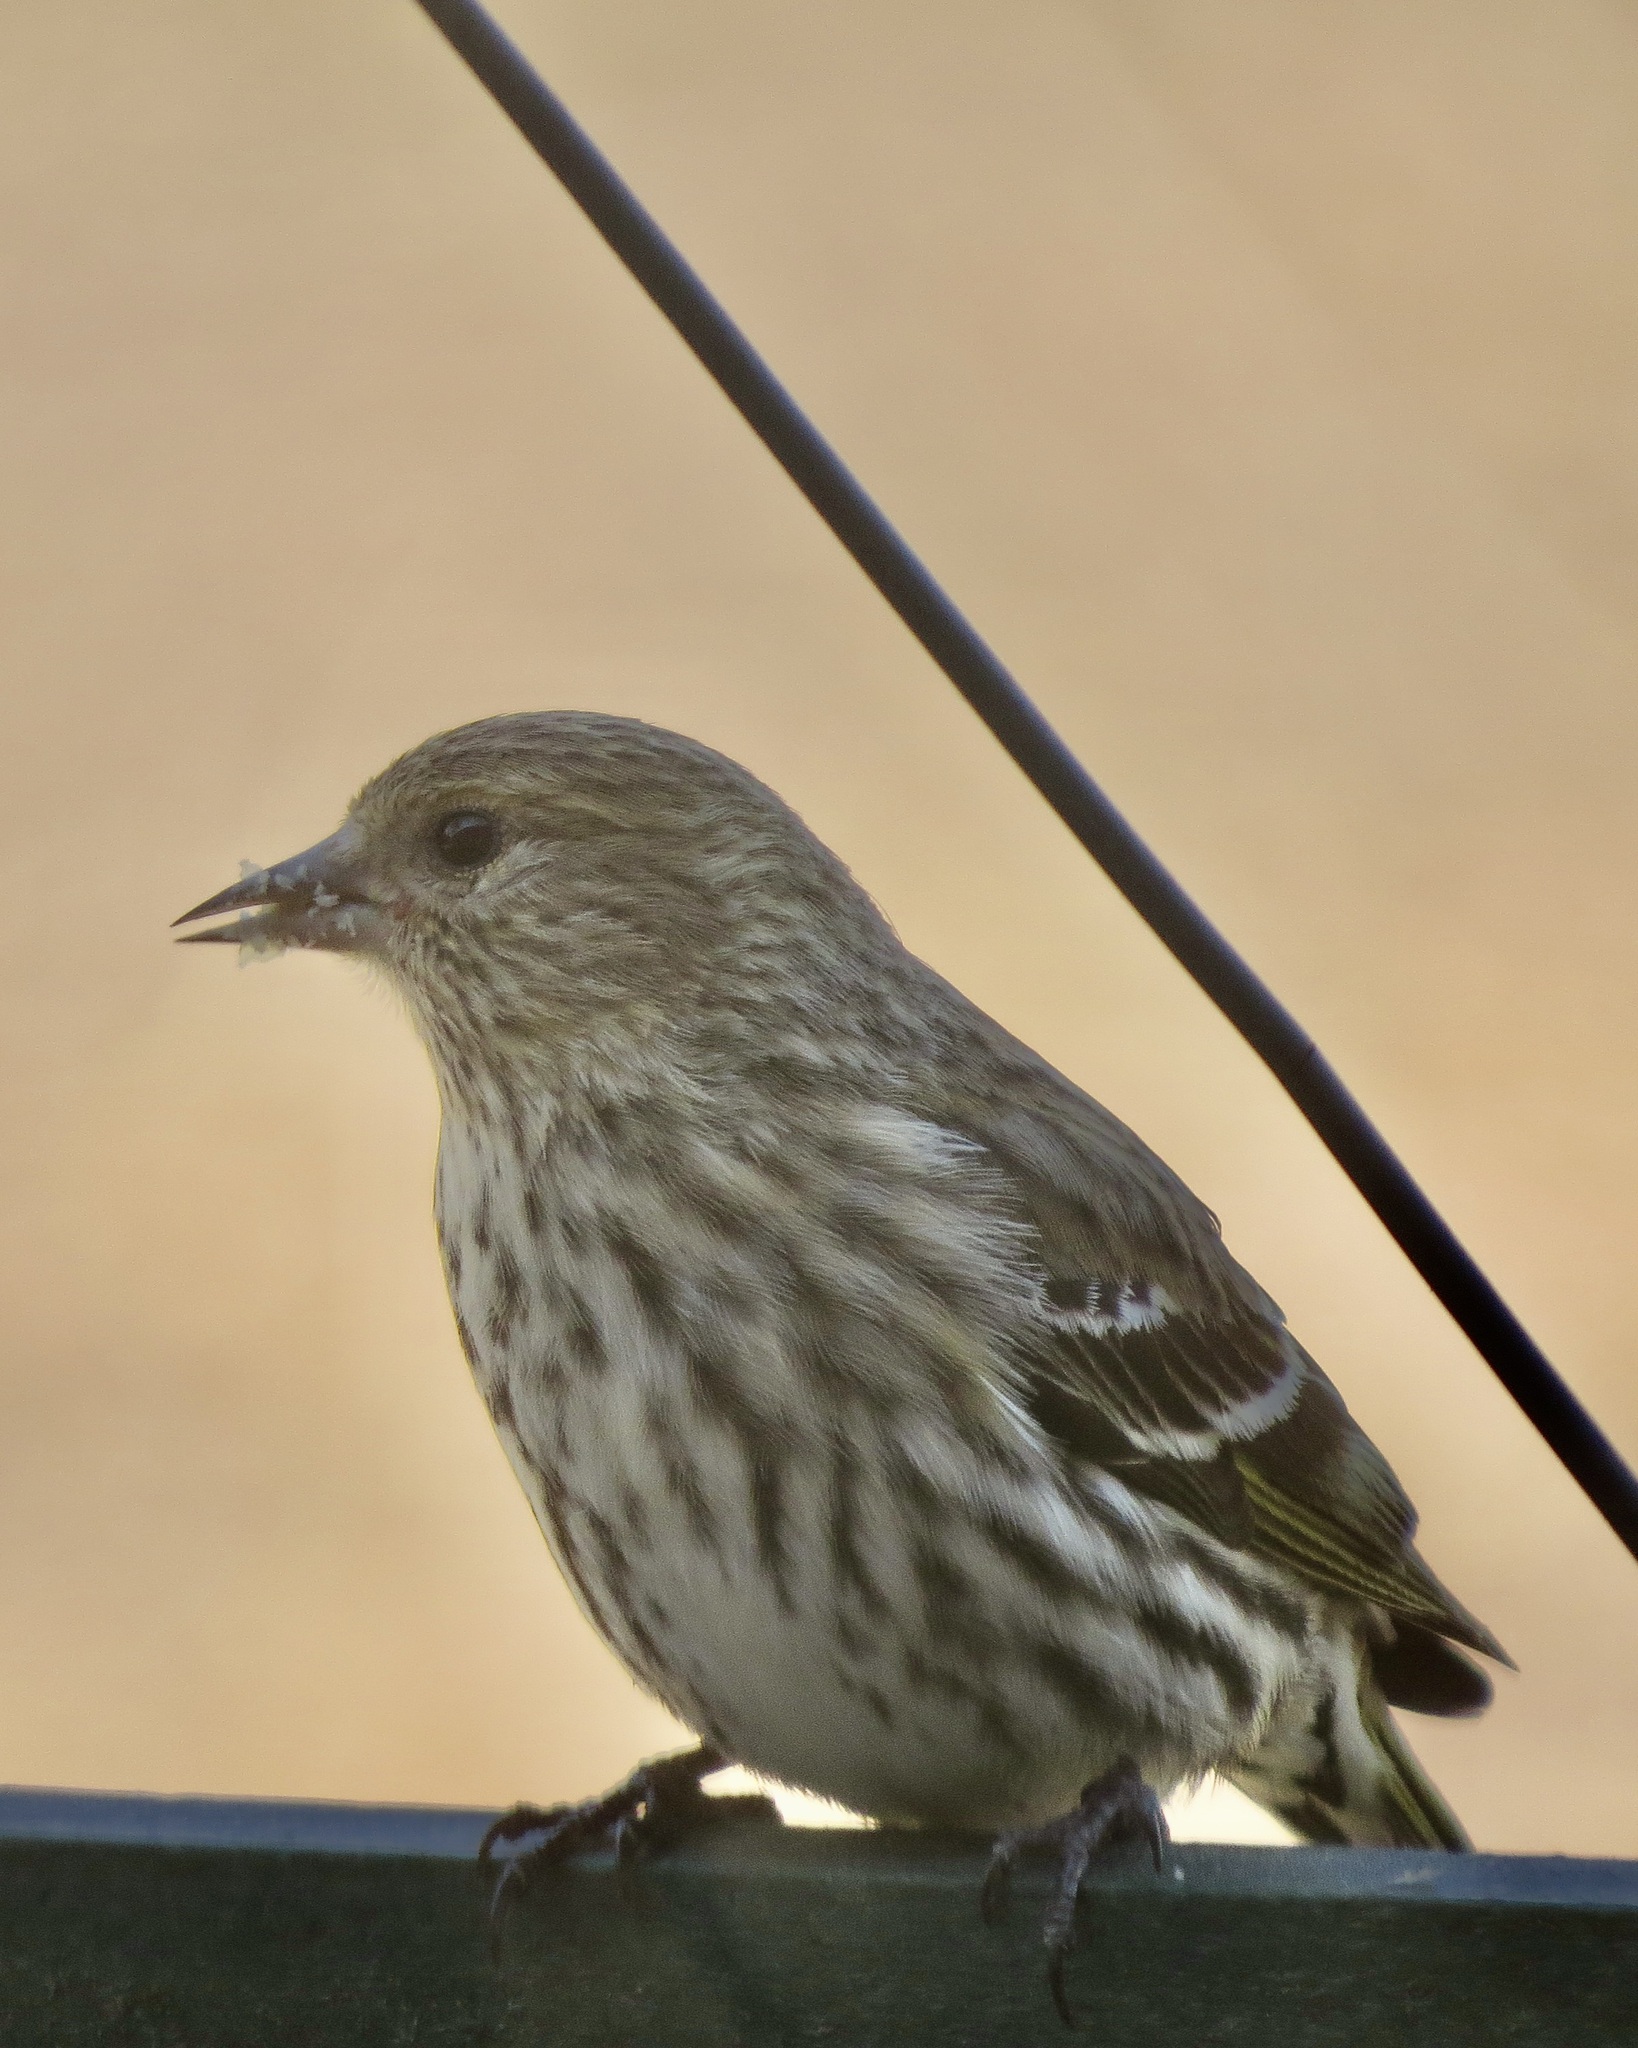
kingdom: Animalia
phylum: Chordata
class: Aves
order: Passeriformes
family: Fringillidae
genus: Spinus
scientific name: Spinus pinus
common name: Pine siskin
